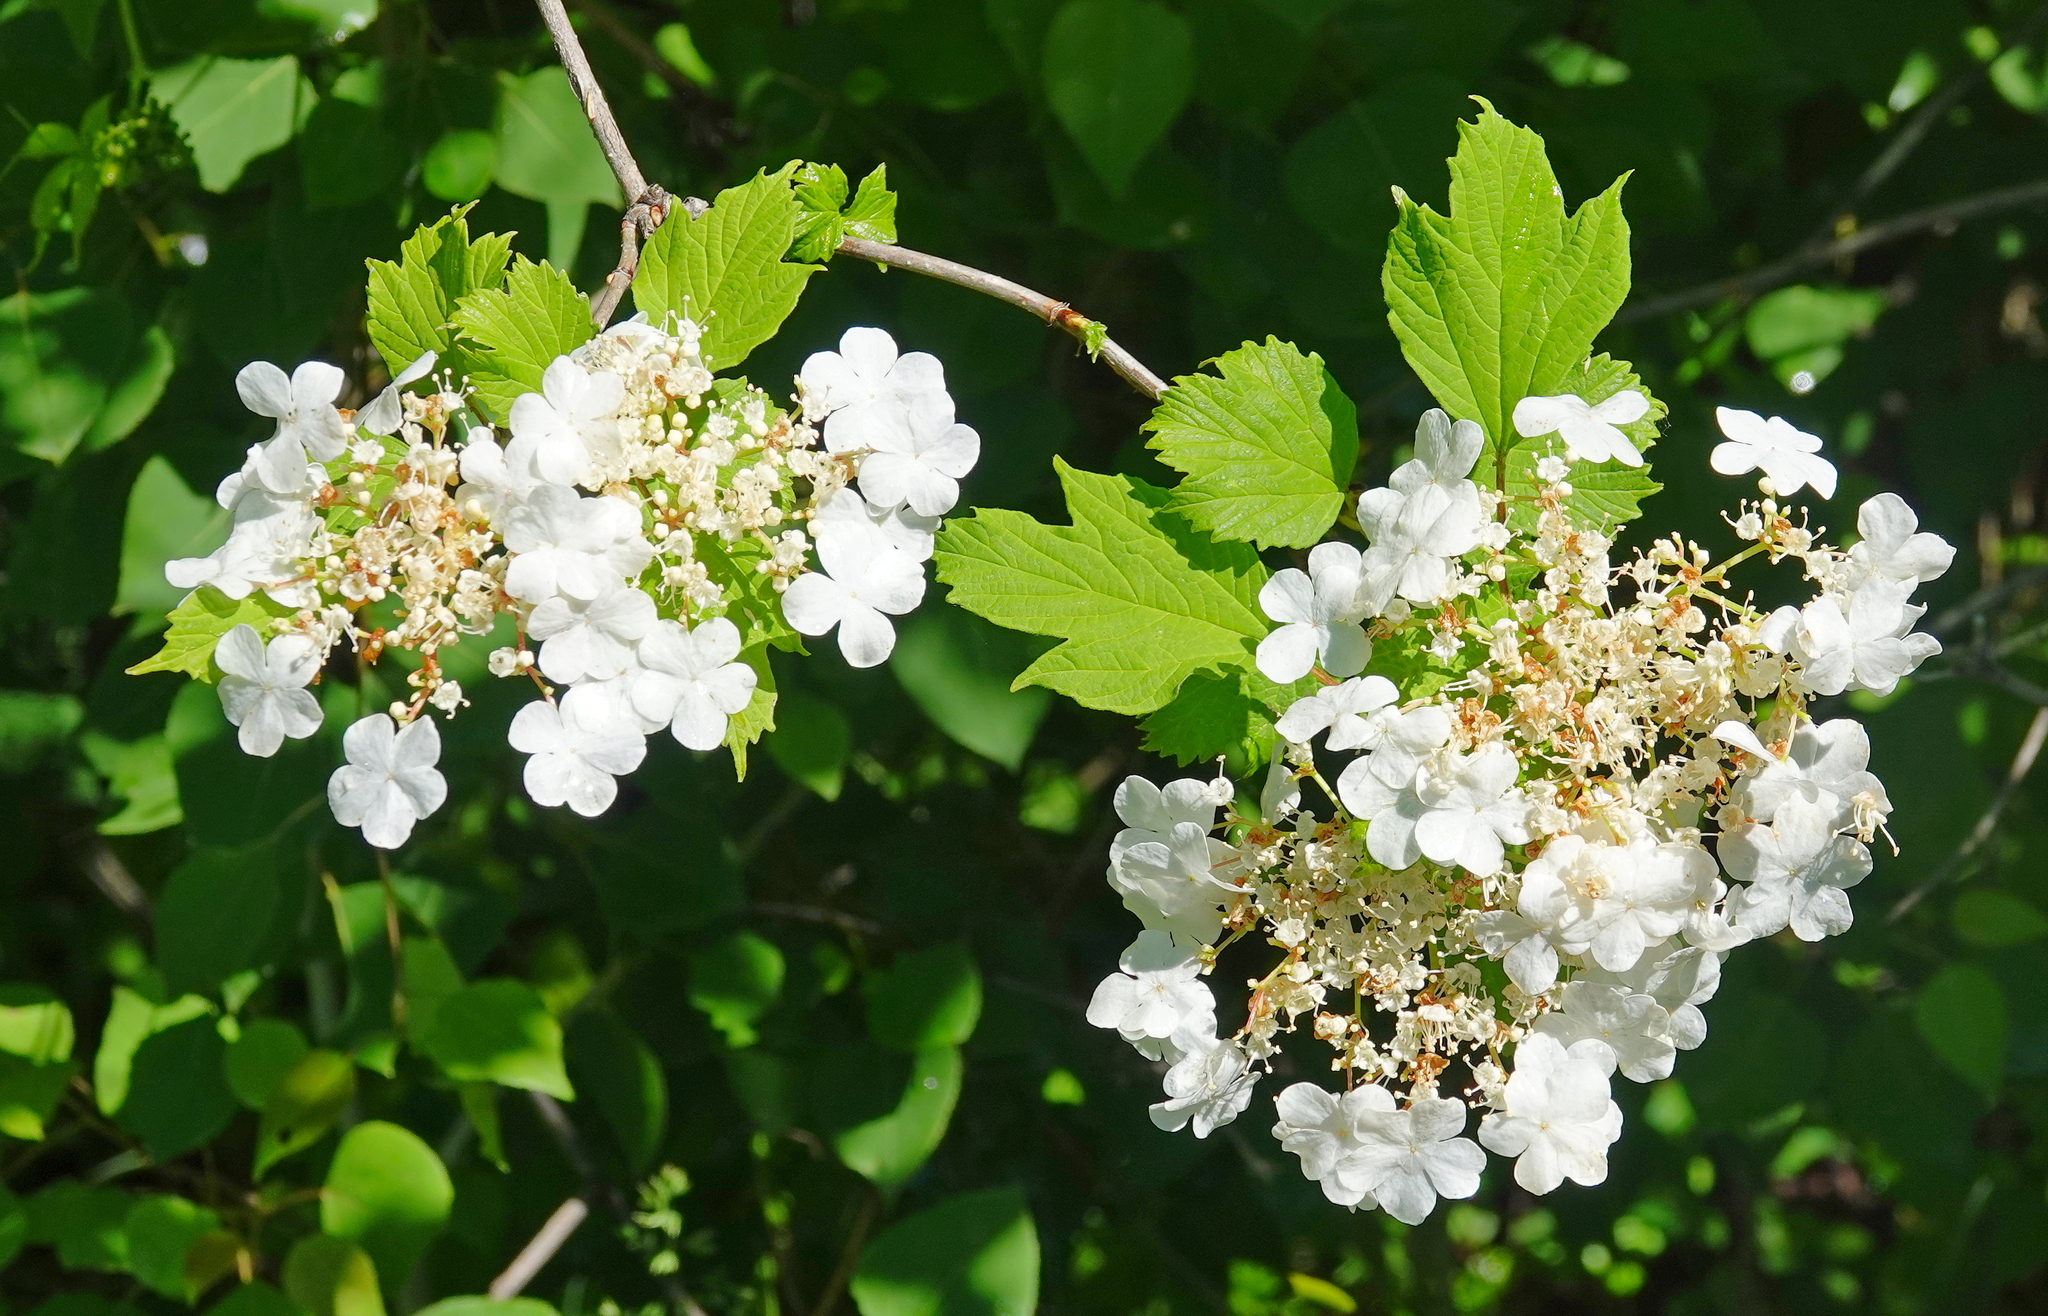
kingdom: Plantae
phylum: Tracheophyta
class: Magnoliopsida
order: Dipsacales
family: Viburnaceae
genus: Viburnum
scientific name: Viburnum opulus
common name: Guelder-rose
